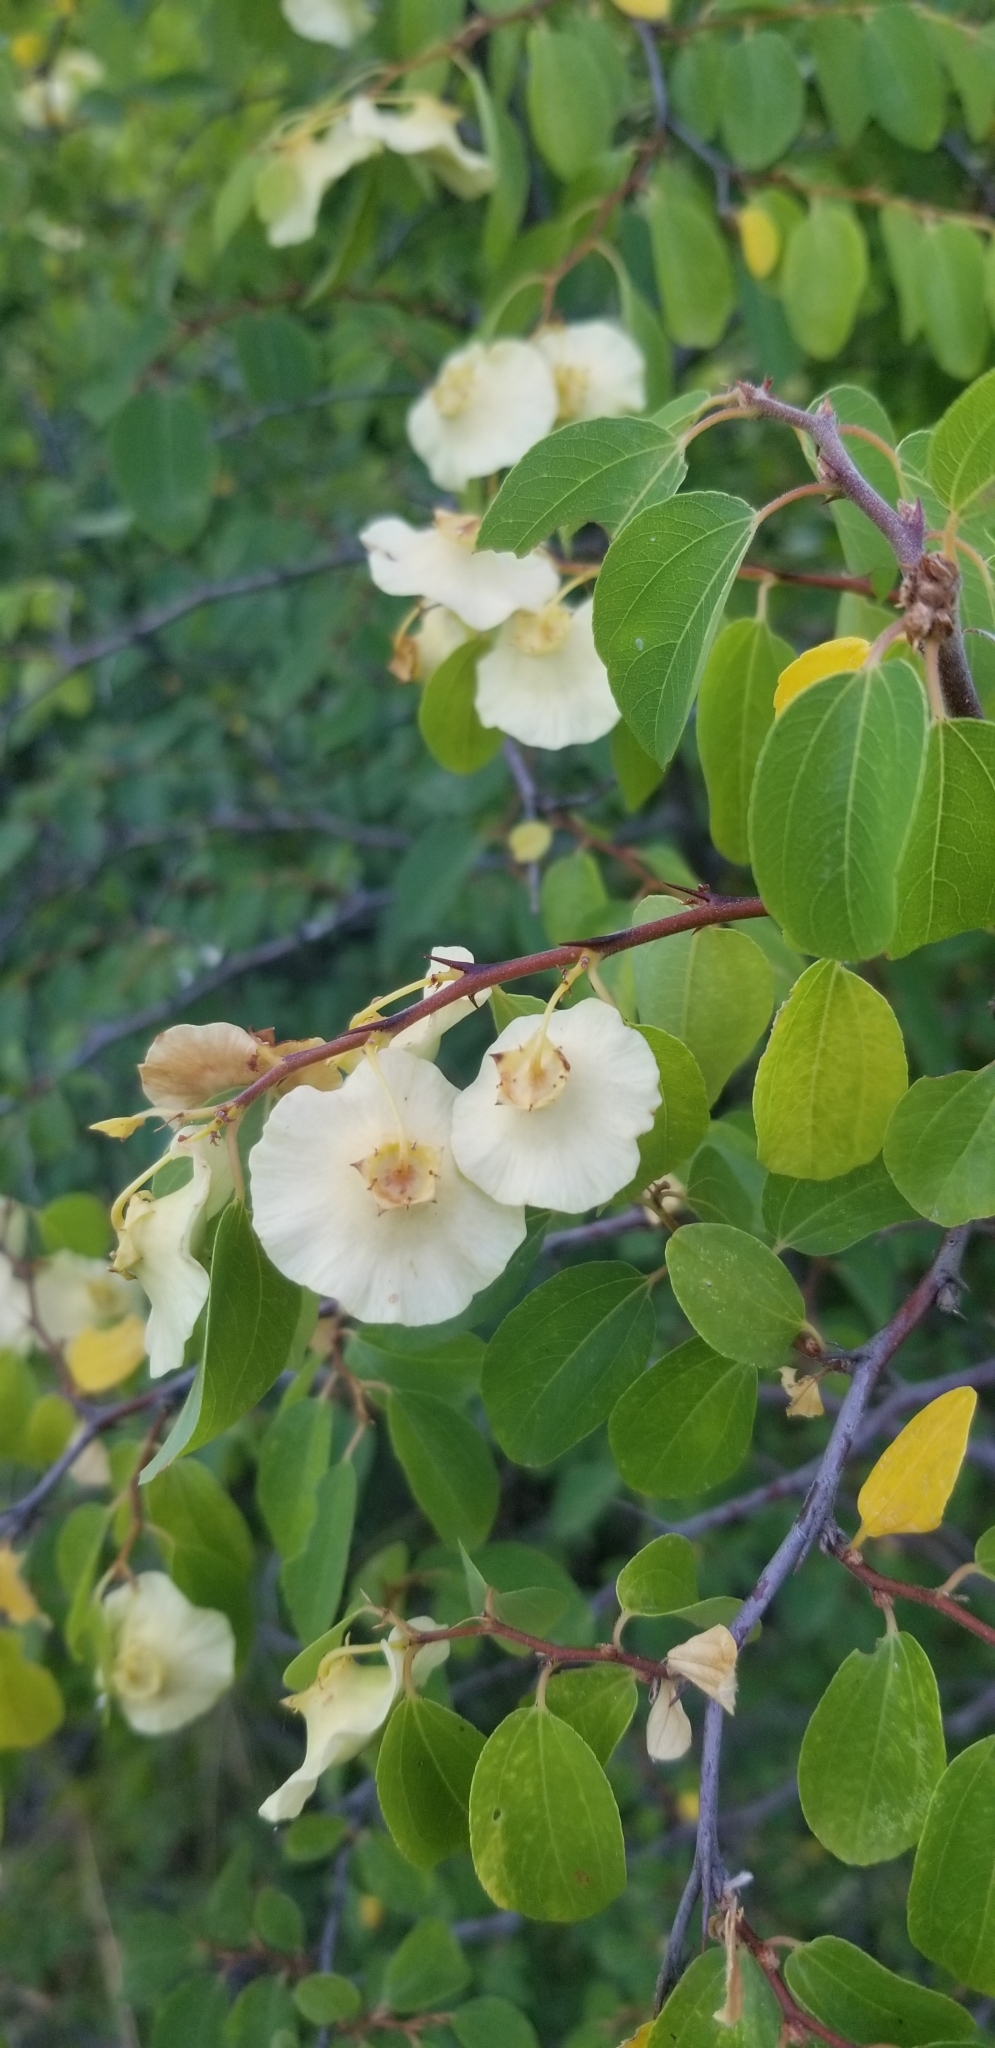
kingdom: Plantae
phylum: Tracheophyta
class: Magnoliopsida
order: Rosales
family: Rhamnaceae
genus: Paliurus
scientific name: Paliurus spina-christi
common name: Jeruselem thorn
